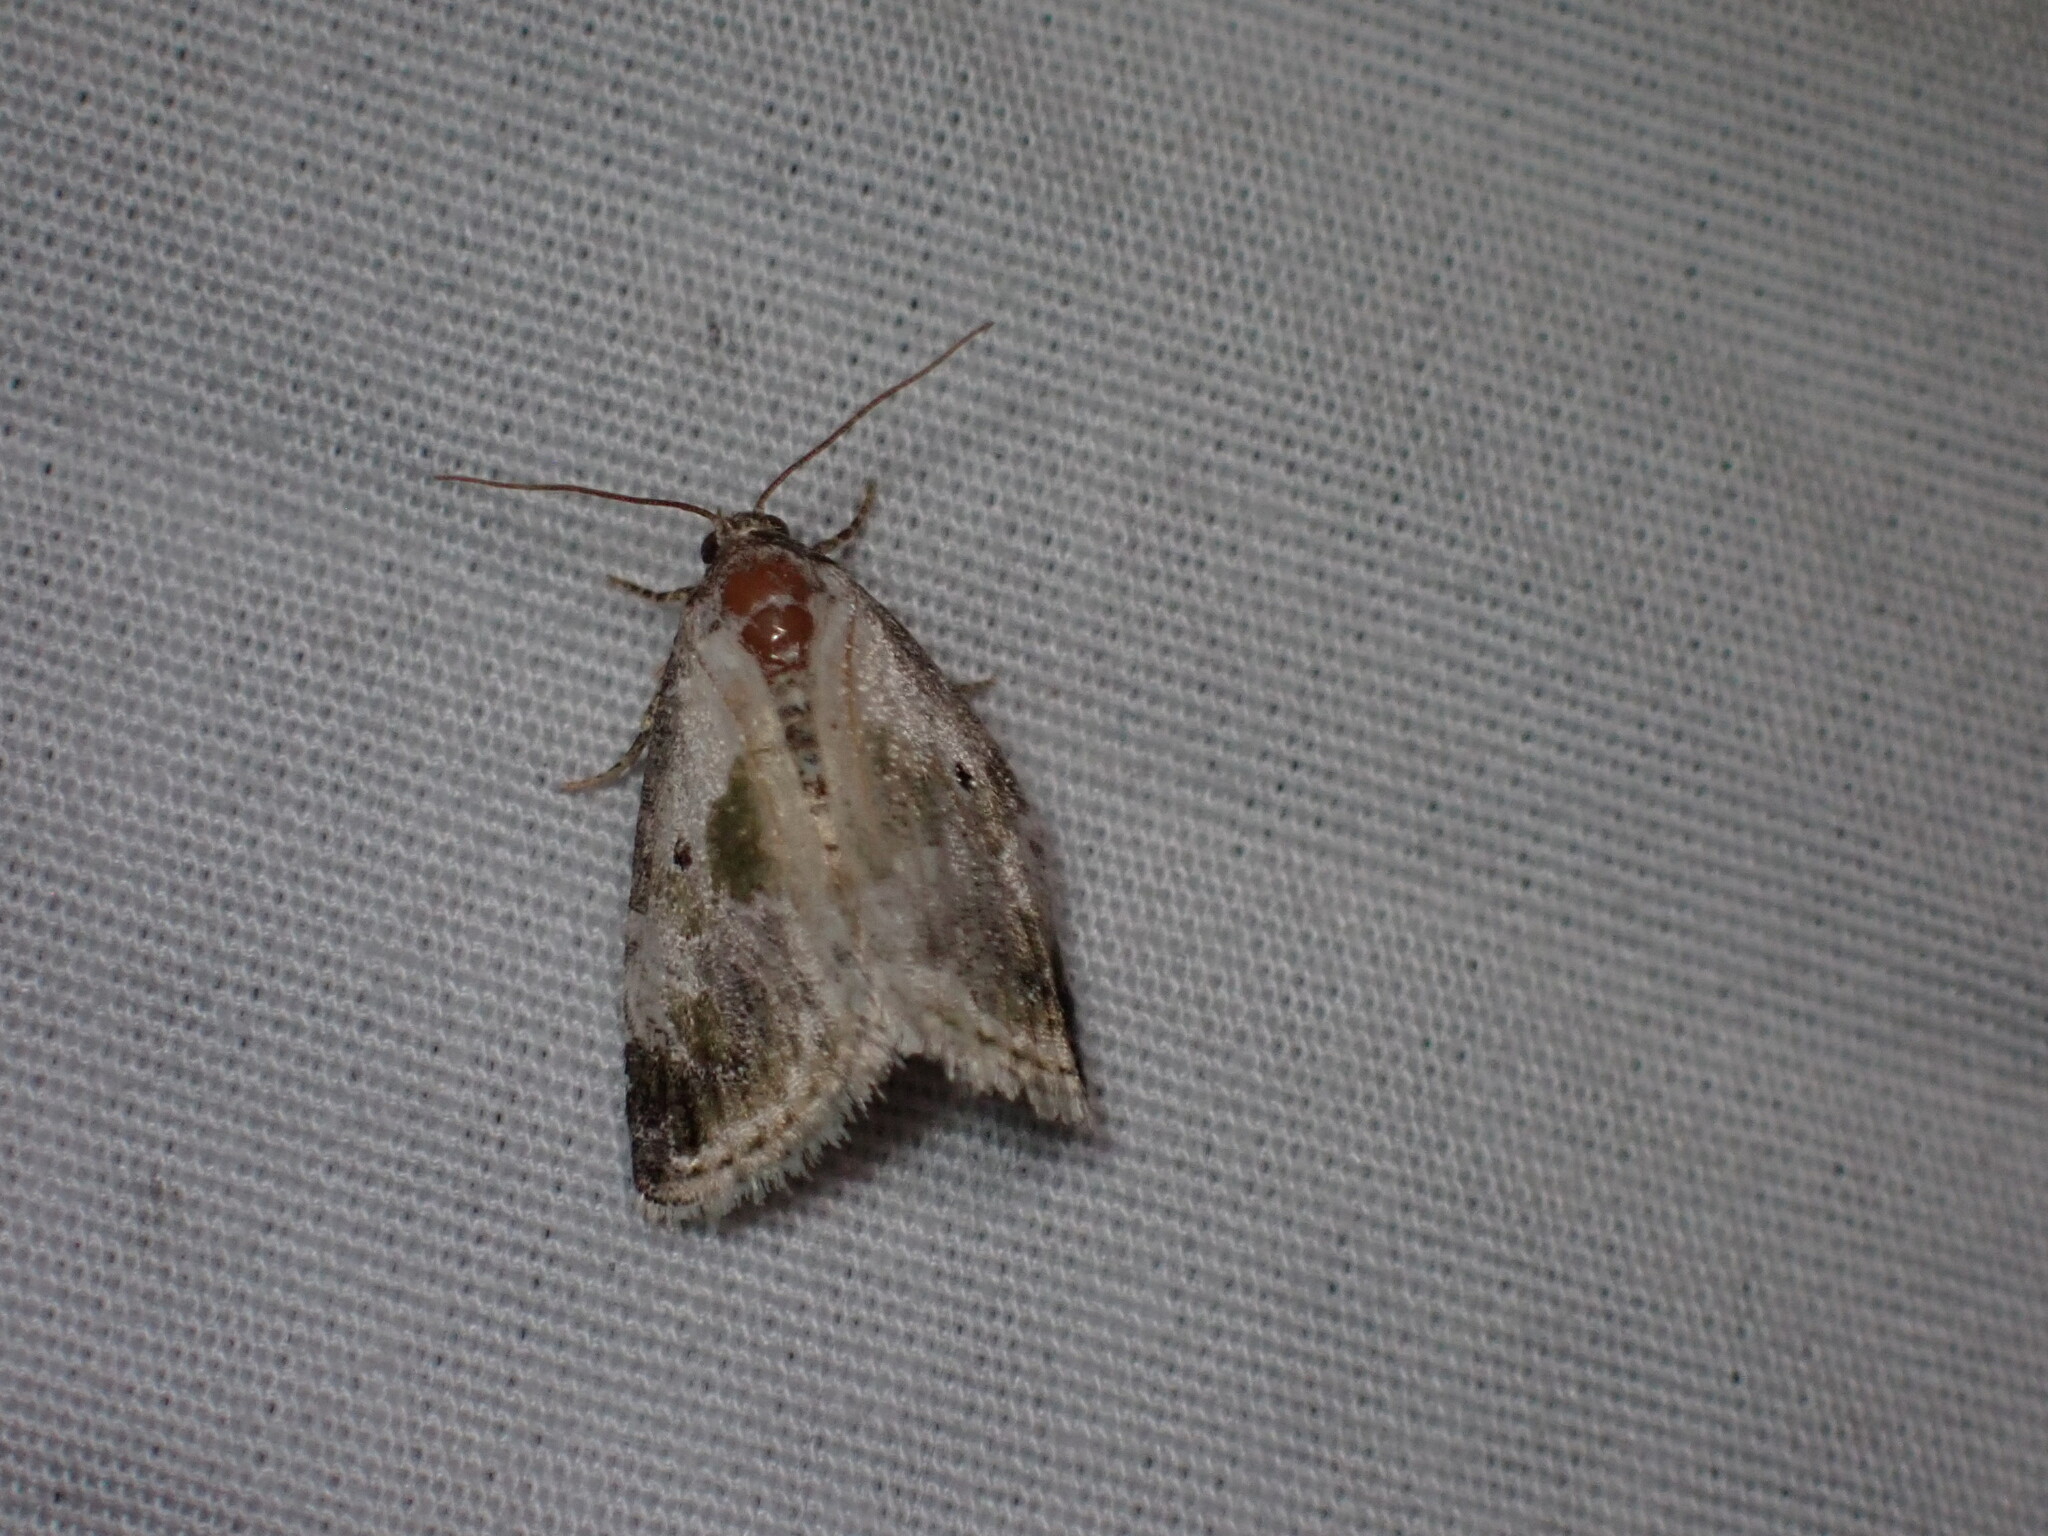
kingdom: Animalia
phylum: Arthropoda
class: Insecta
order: Lepidoptera
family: Noctuidae
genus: Maliattha
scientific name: Maliattha synochitis
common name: Black-dotted glyph
